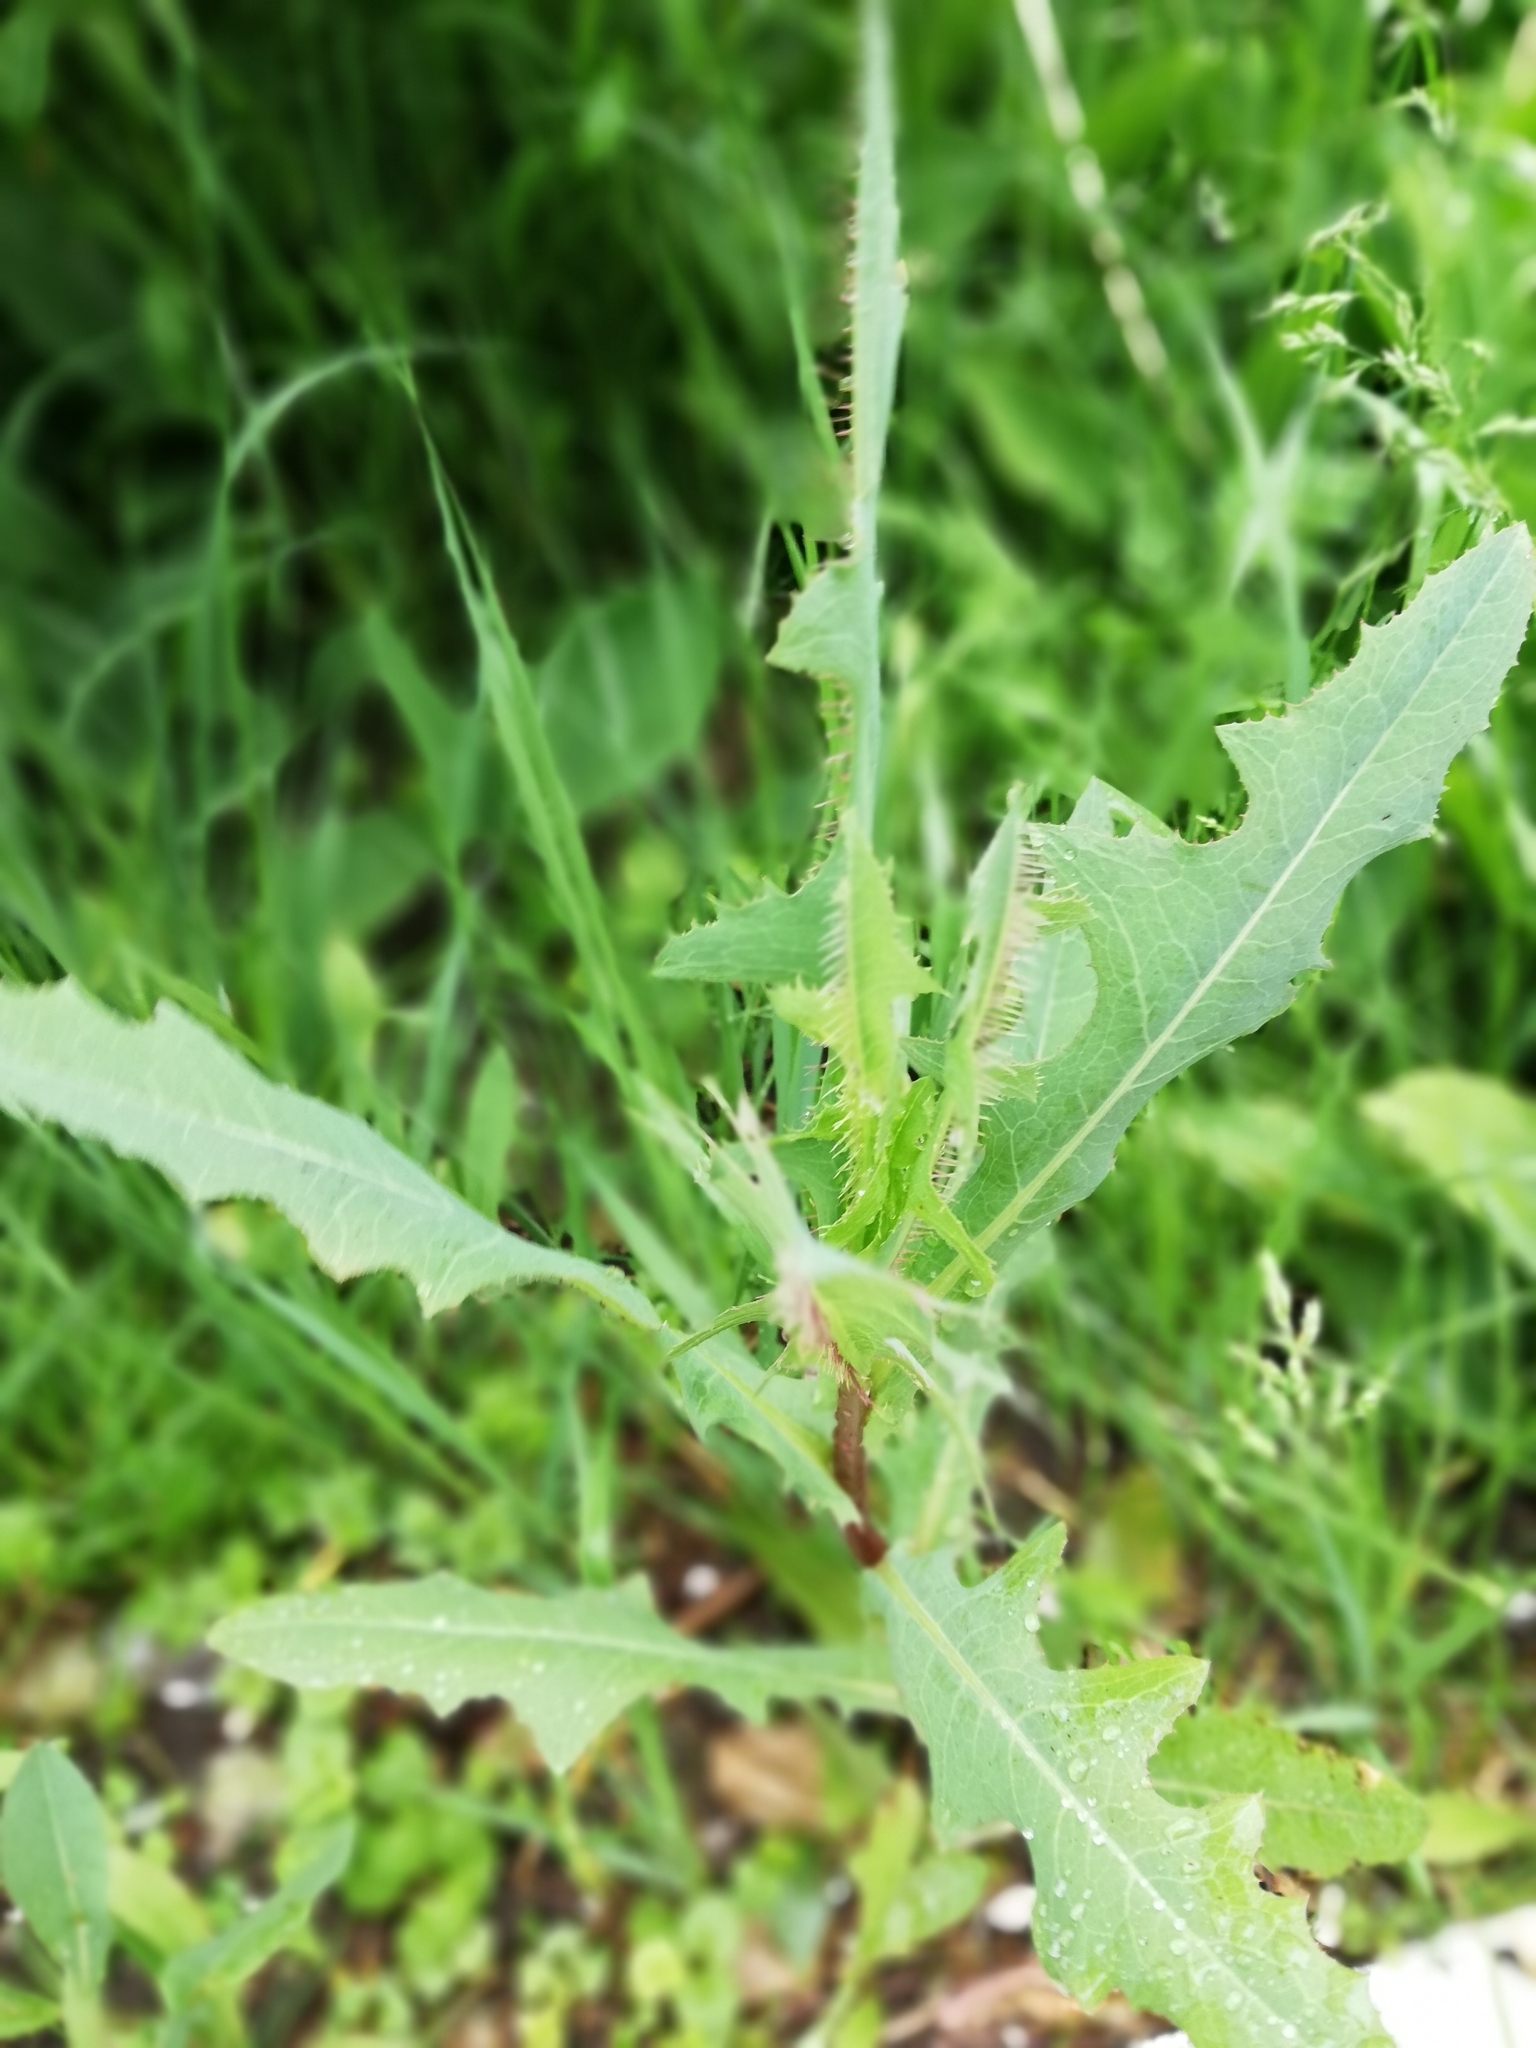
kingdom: Plantae
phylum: Tracheophyta
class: Magnoliopsida
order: Asterales
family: Asteraceae
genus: Lactuca
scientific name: Lactuca serriola
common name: Prickly lettuce
